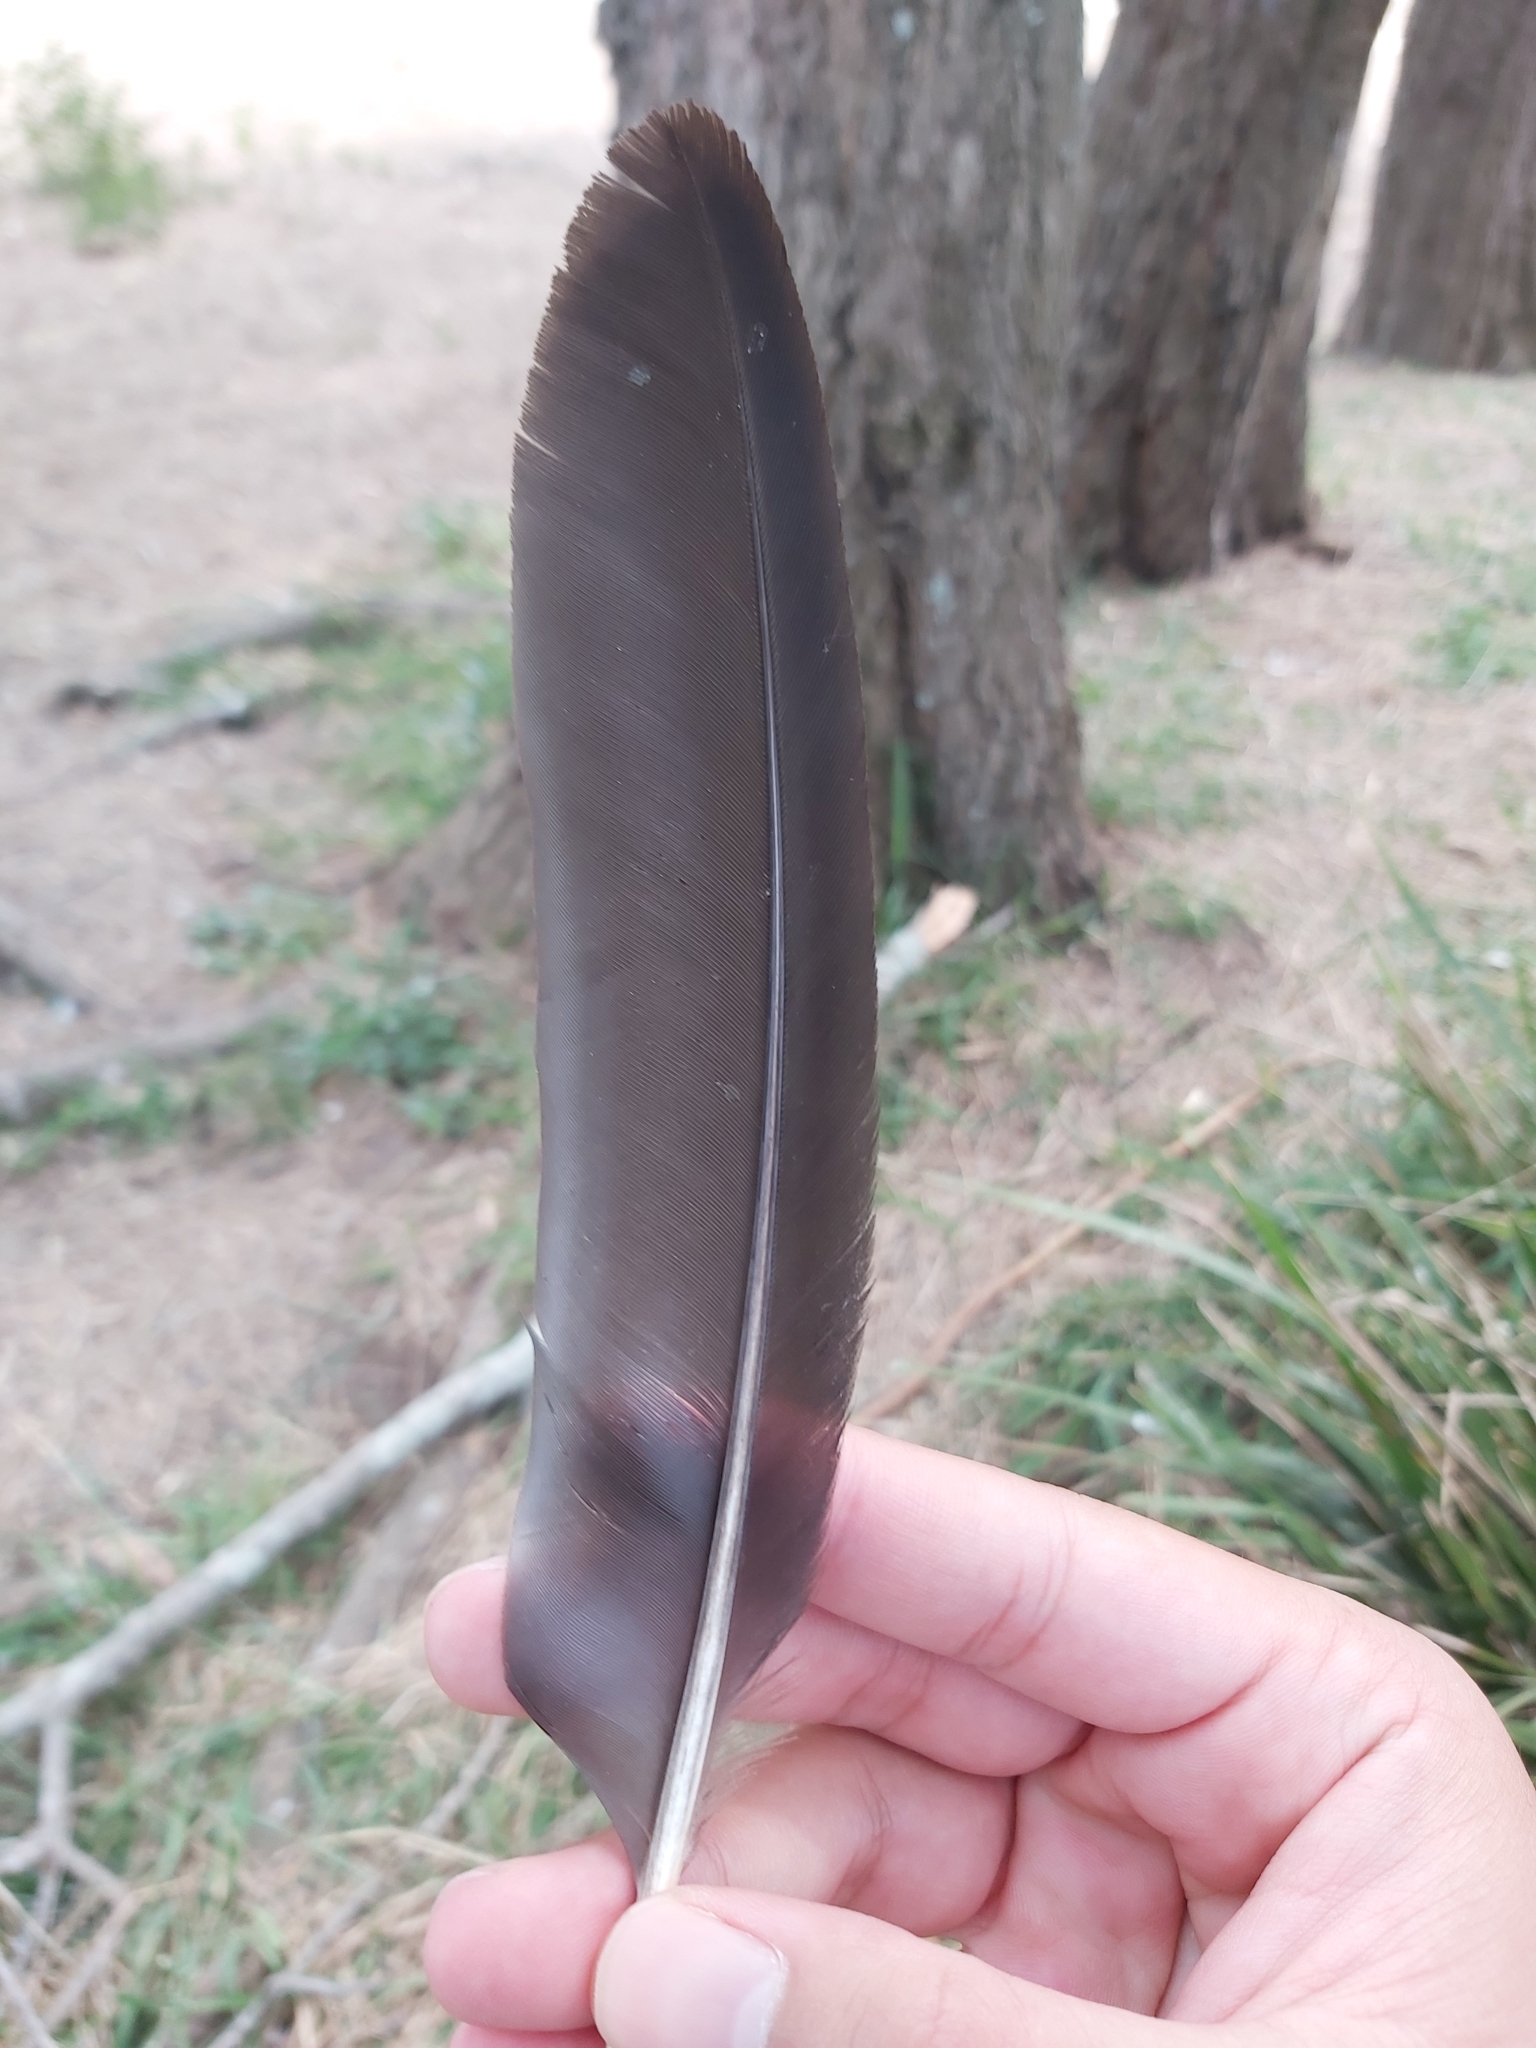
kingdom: Animalia
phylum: Chordata
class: Aves
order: Gruiformes
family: Rallidae
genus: Gallinula
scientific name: Gallinula tenebrosa
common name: Dusky moorhen
